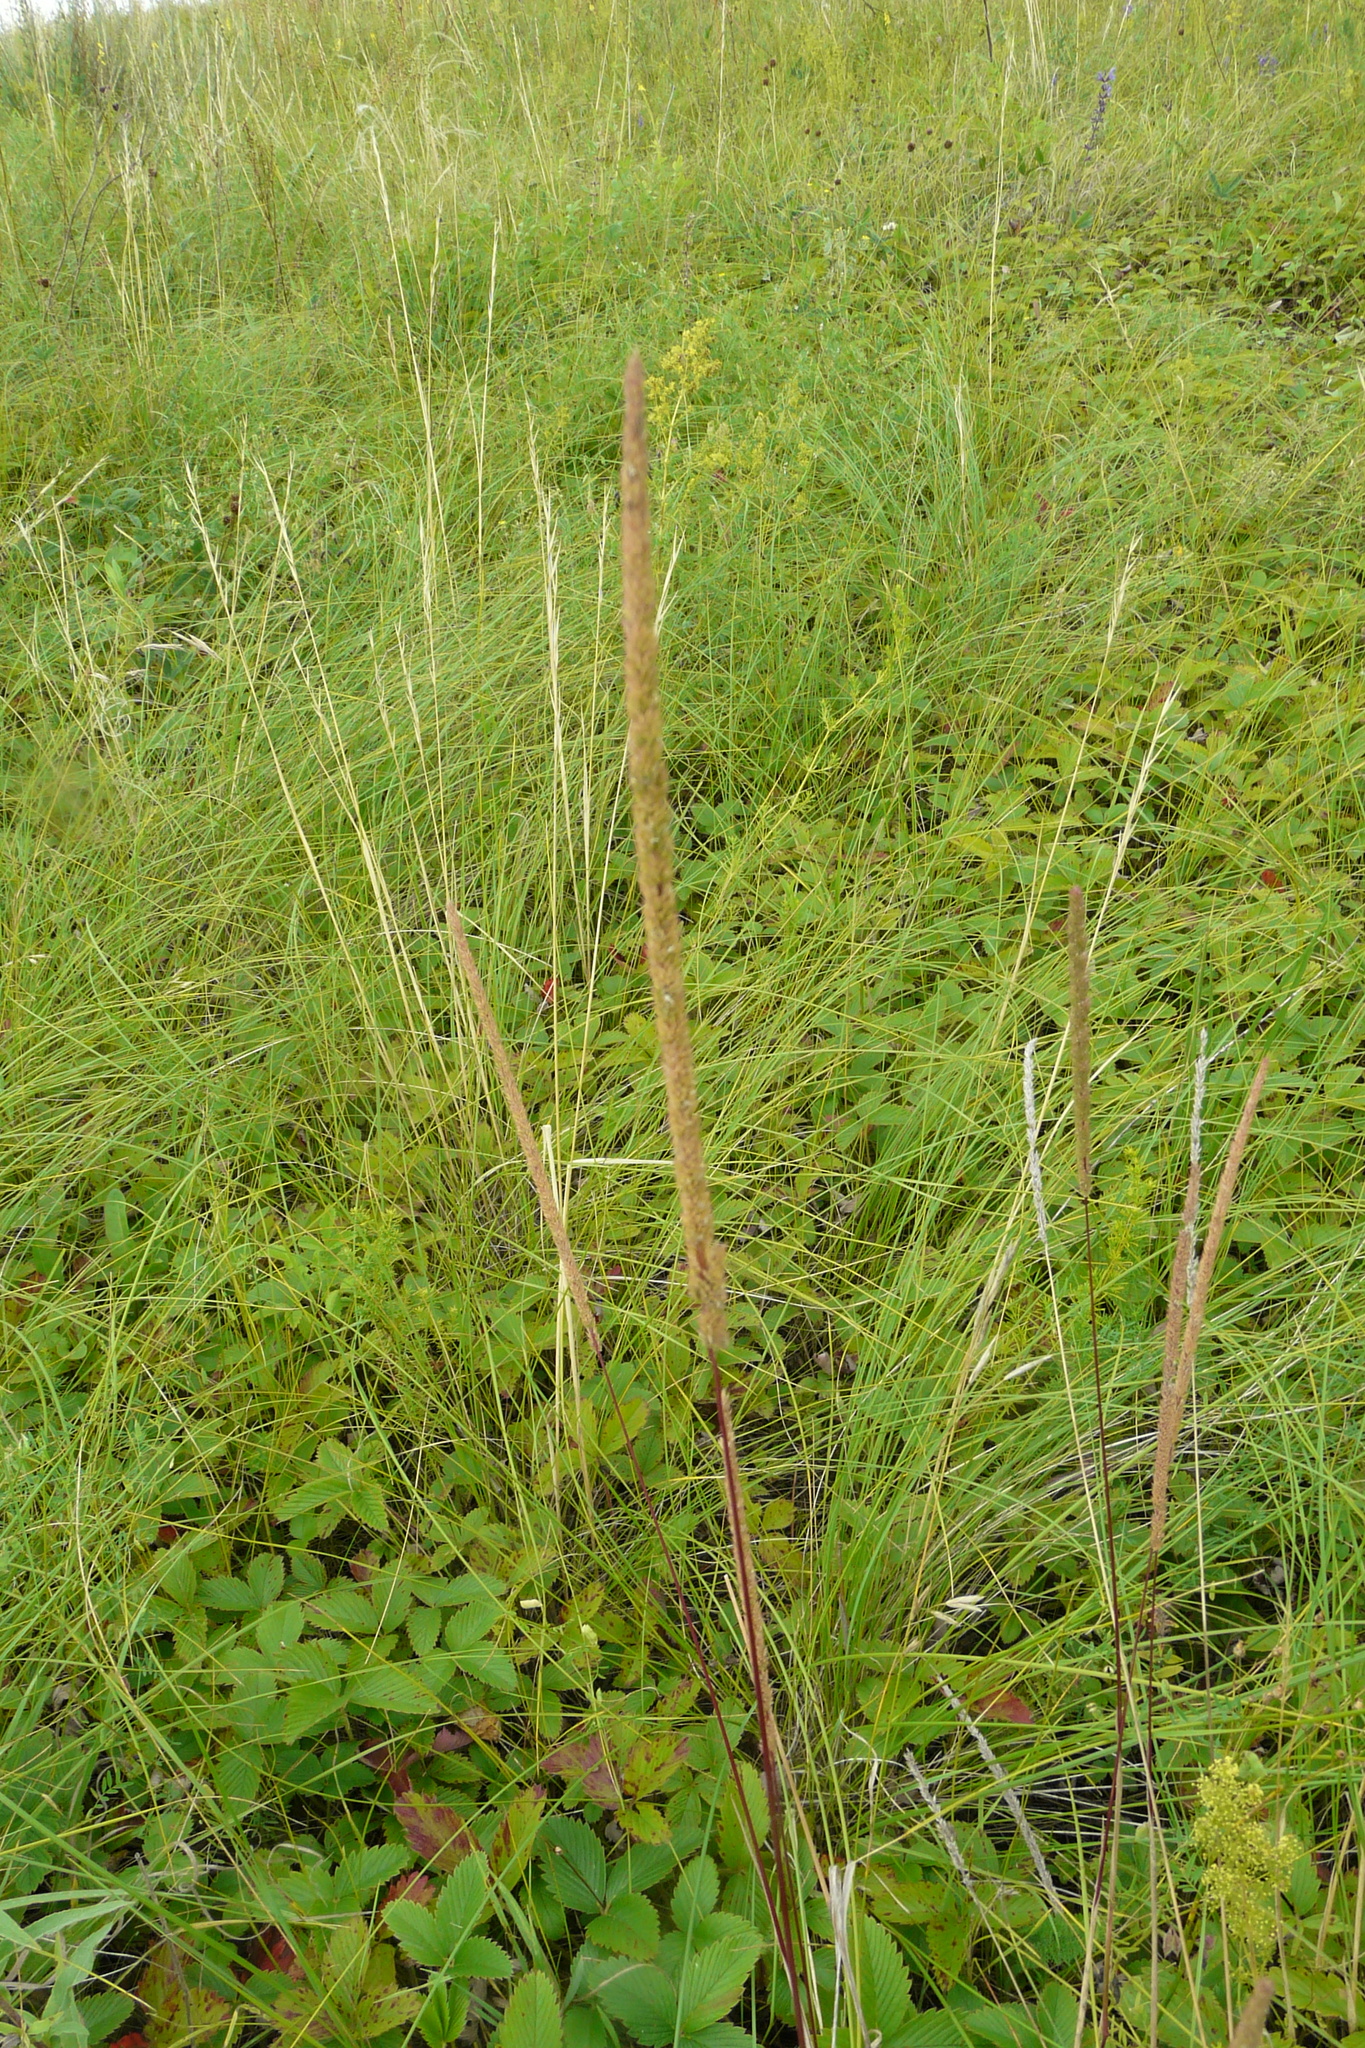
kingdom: Plantae
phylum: Tracheophyta
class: Liliopsida
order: Poales
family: Poaceae
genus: Phleum
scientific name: Phleum phleoides
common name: Purple-stem cat's-tail
